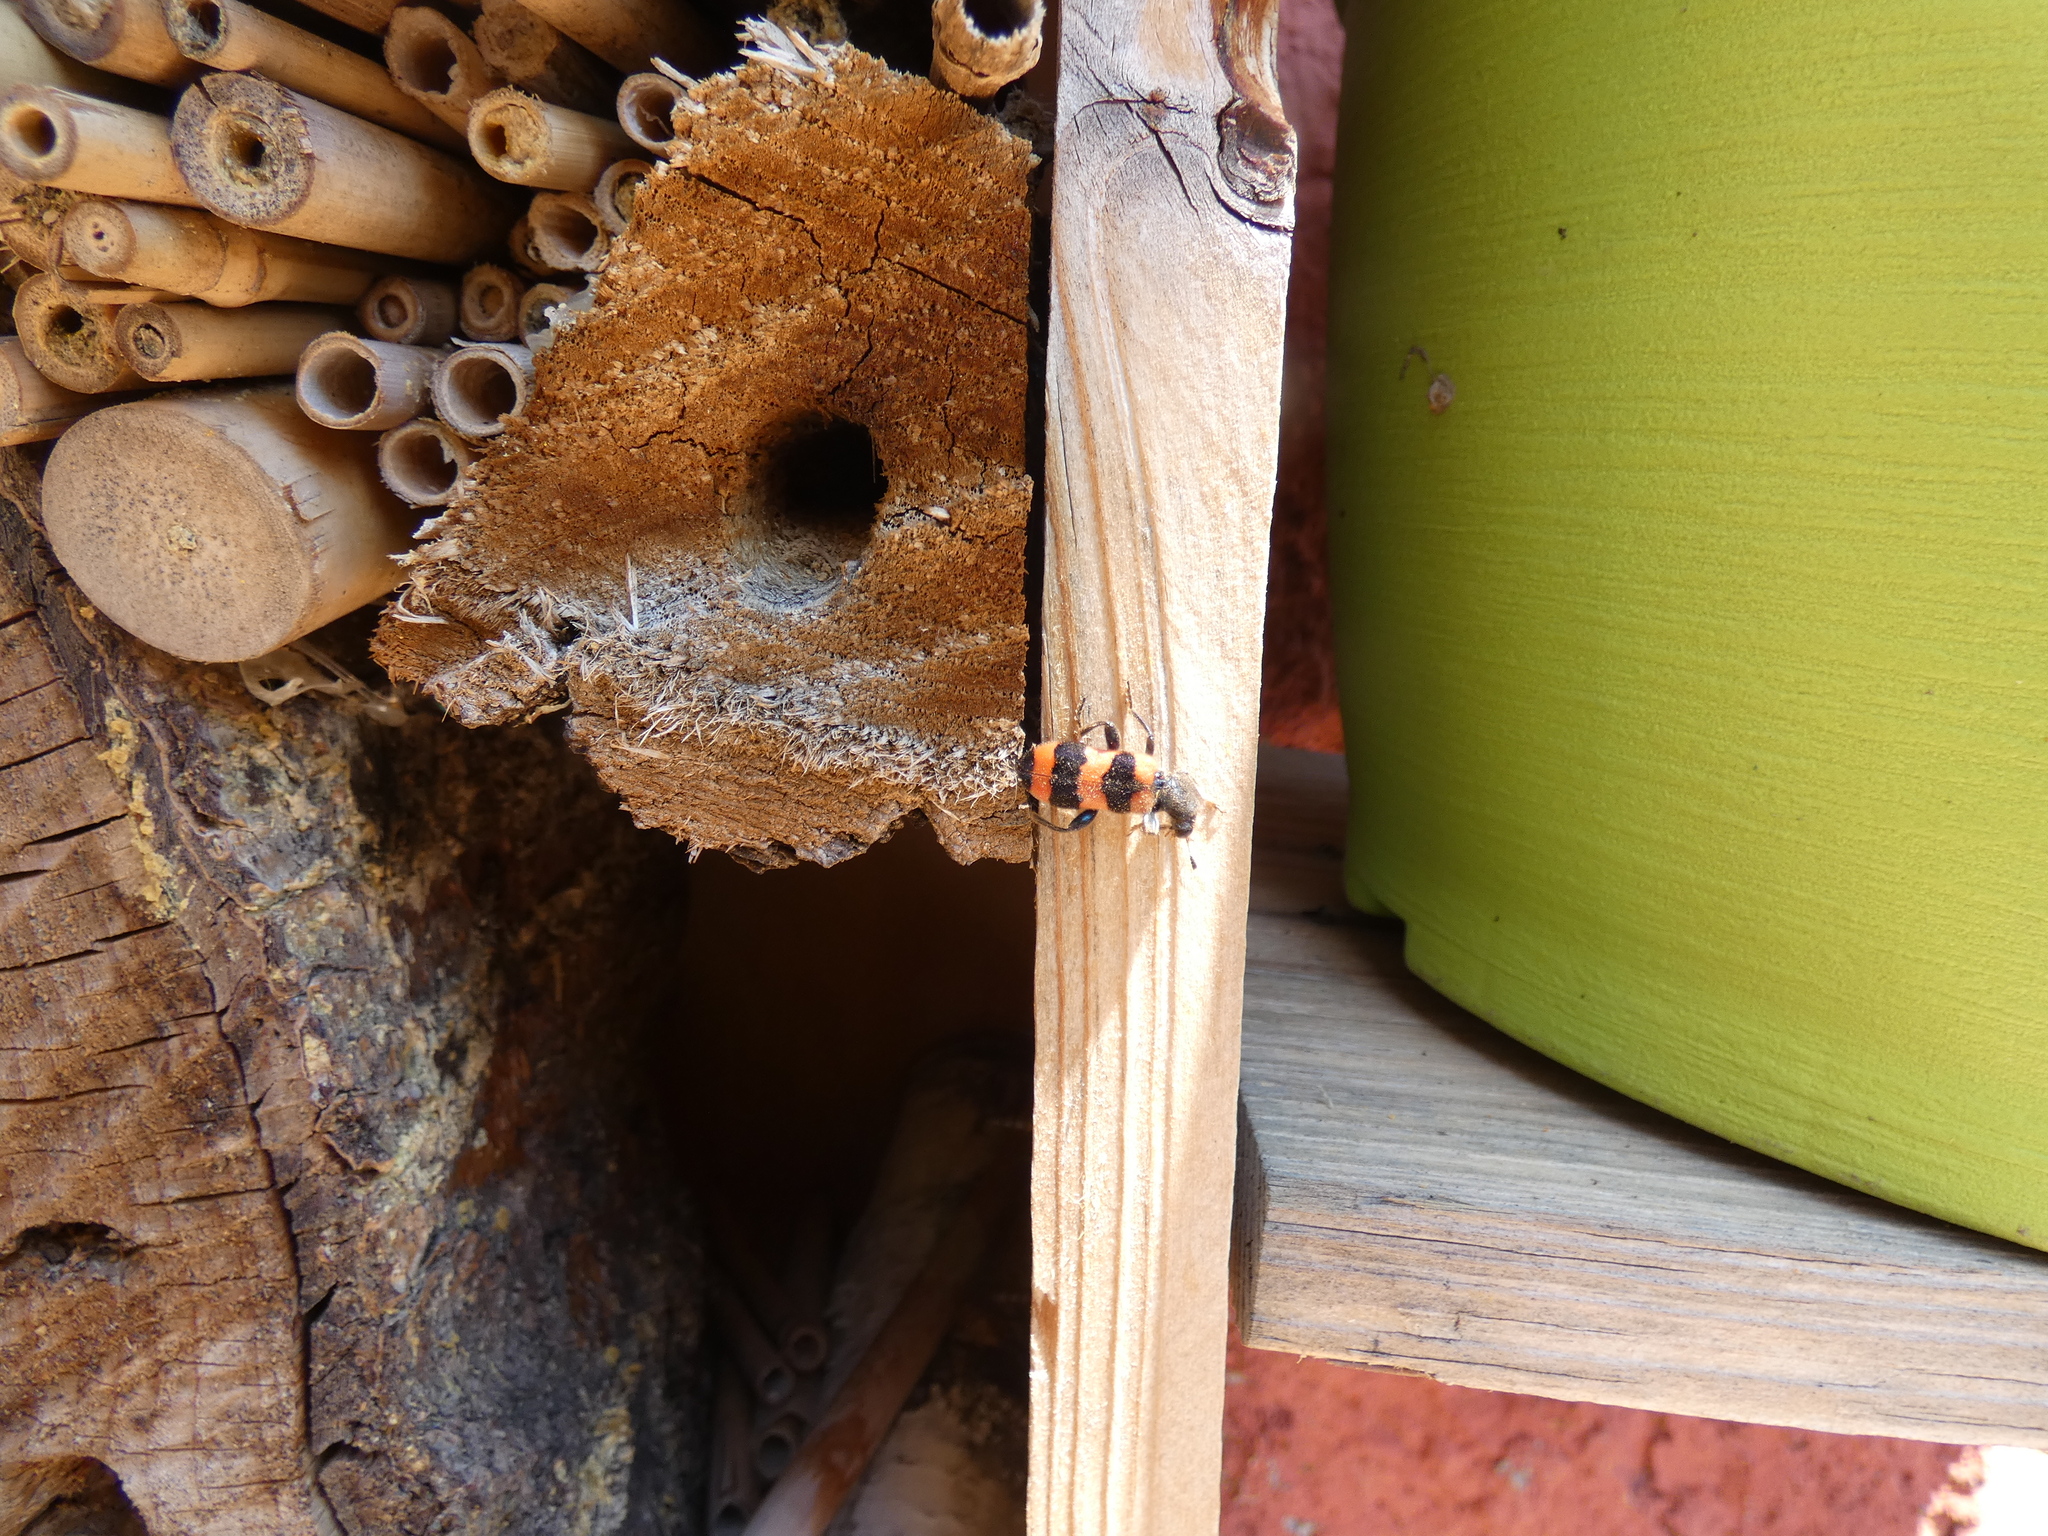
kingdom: Animalia
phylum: Arthropoda
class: Insecta
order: Coleoptera
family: Cleridae
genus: Trichodes
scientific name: Trichodes apiarius
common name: Bee-eating beetle
